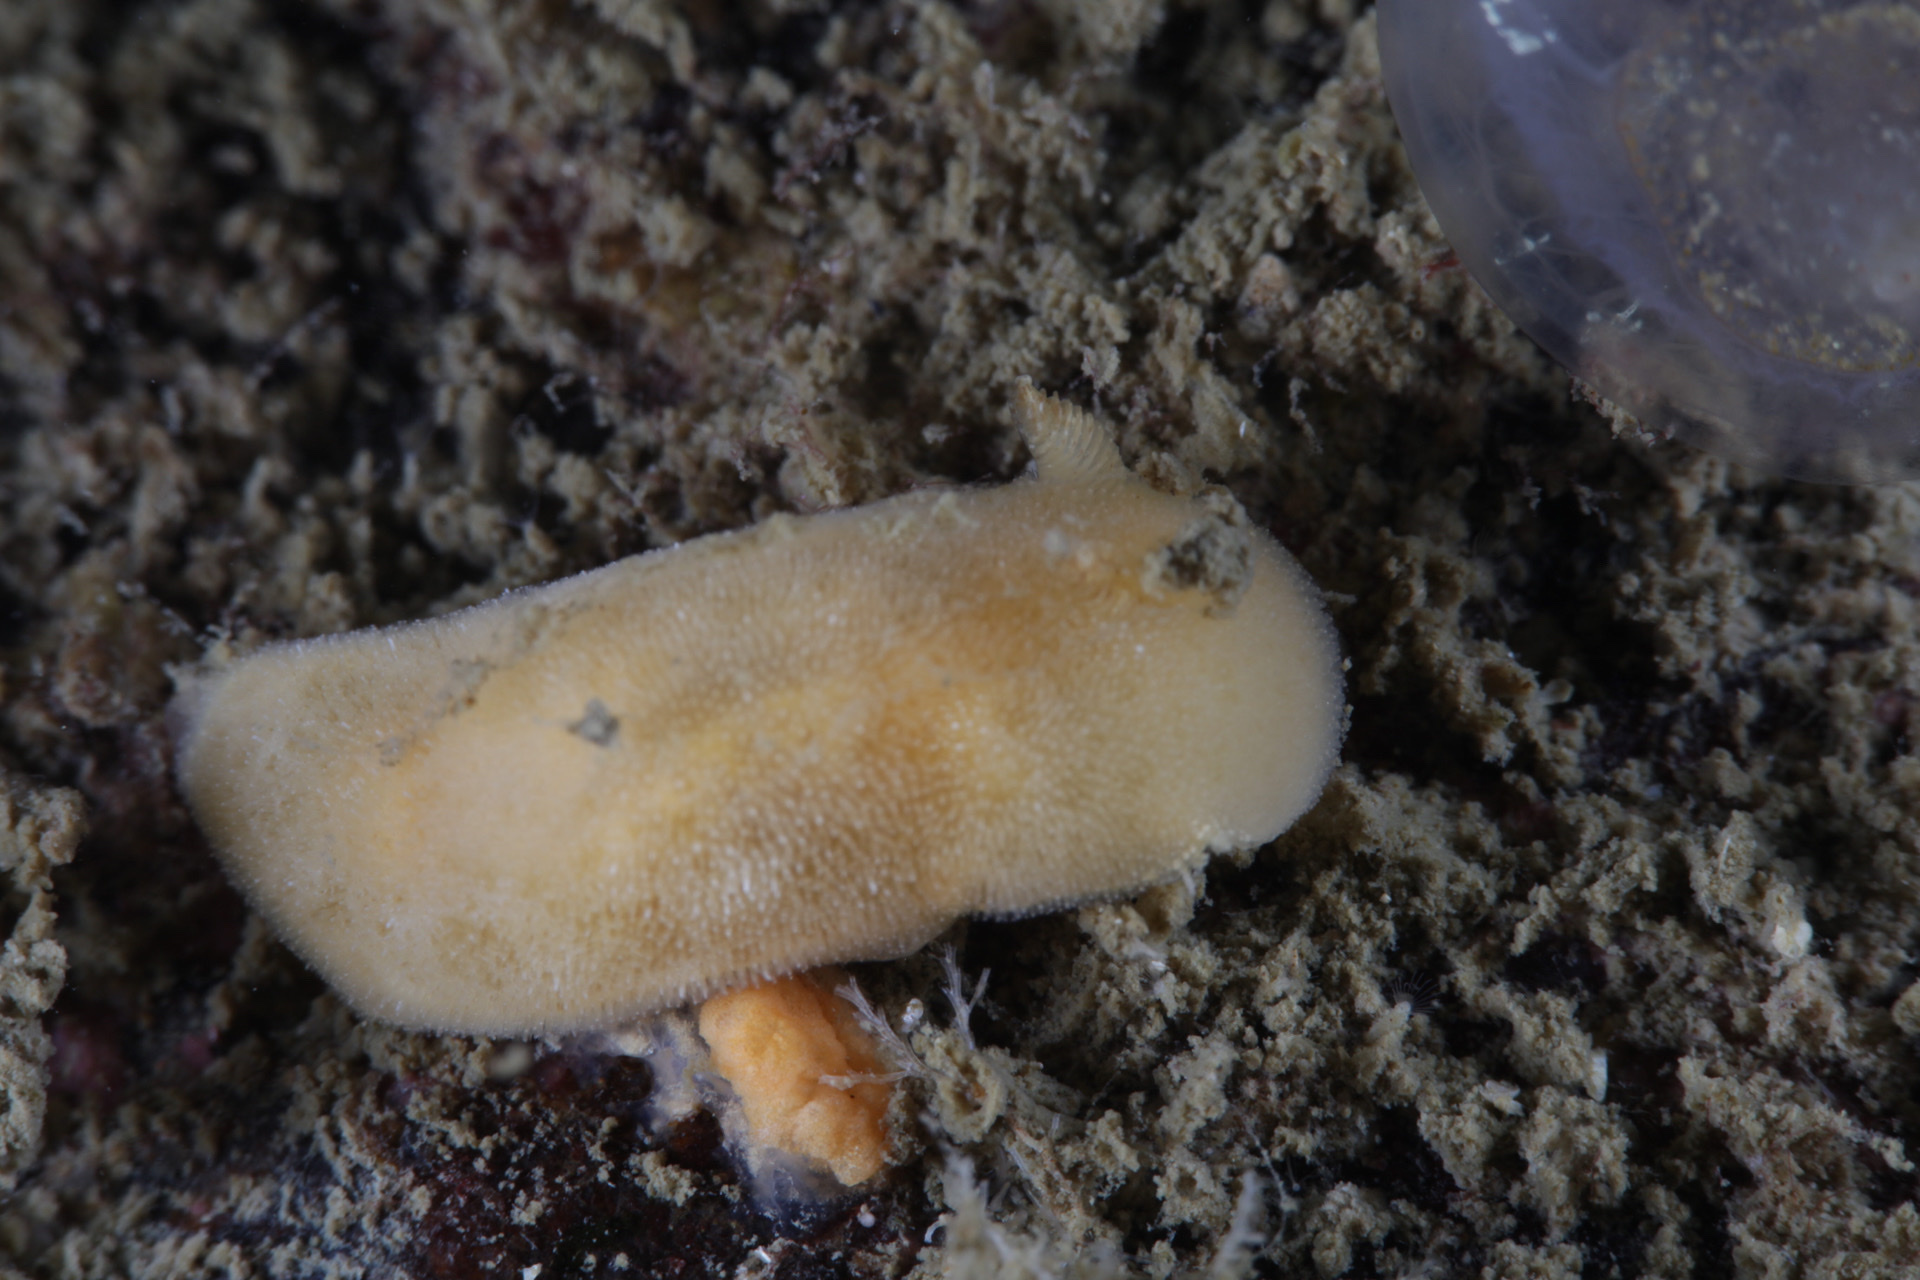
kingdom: Animalia
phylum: Mollusca
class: Gastropoda
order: Nudibranchia
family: Discodorididae
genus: Jorunna
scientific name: Jorunna tomentosa
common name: Grey sea slug
